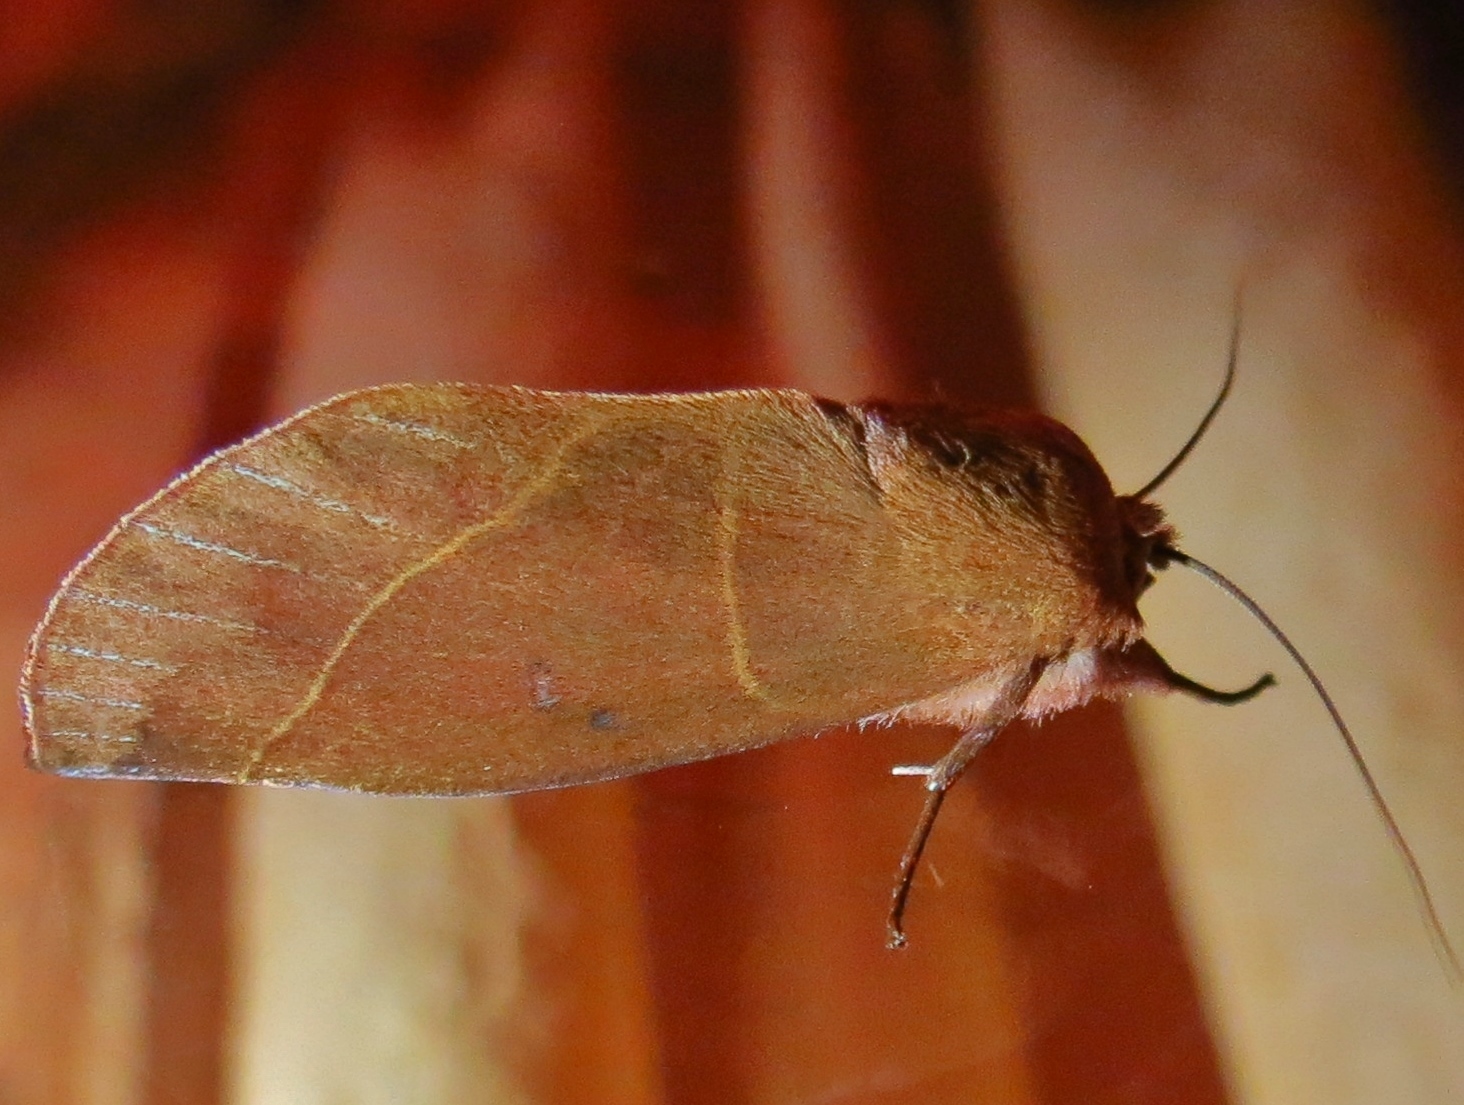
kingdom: Animalia
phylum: Arthropoda
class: Insecta
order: Lepidoptera
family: Notodontidae
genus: Hemiceras
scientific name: Hemiceras modesta
